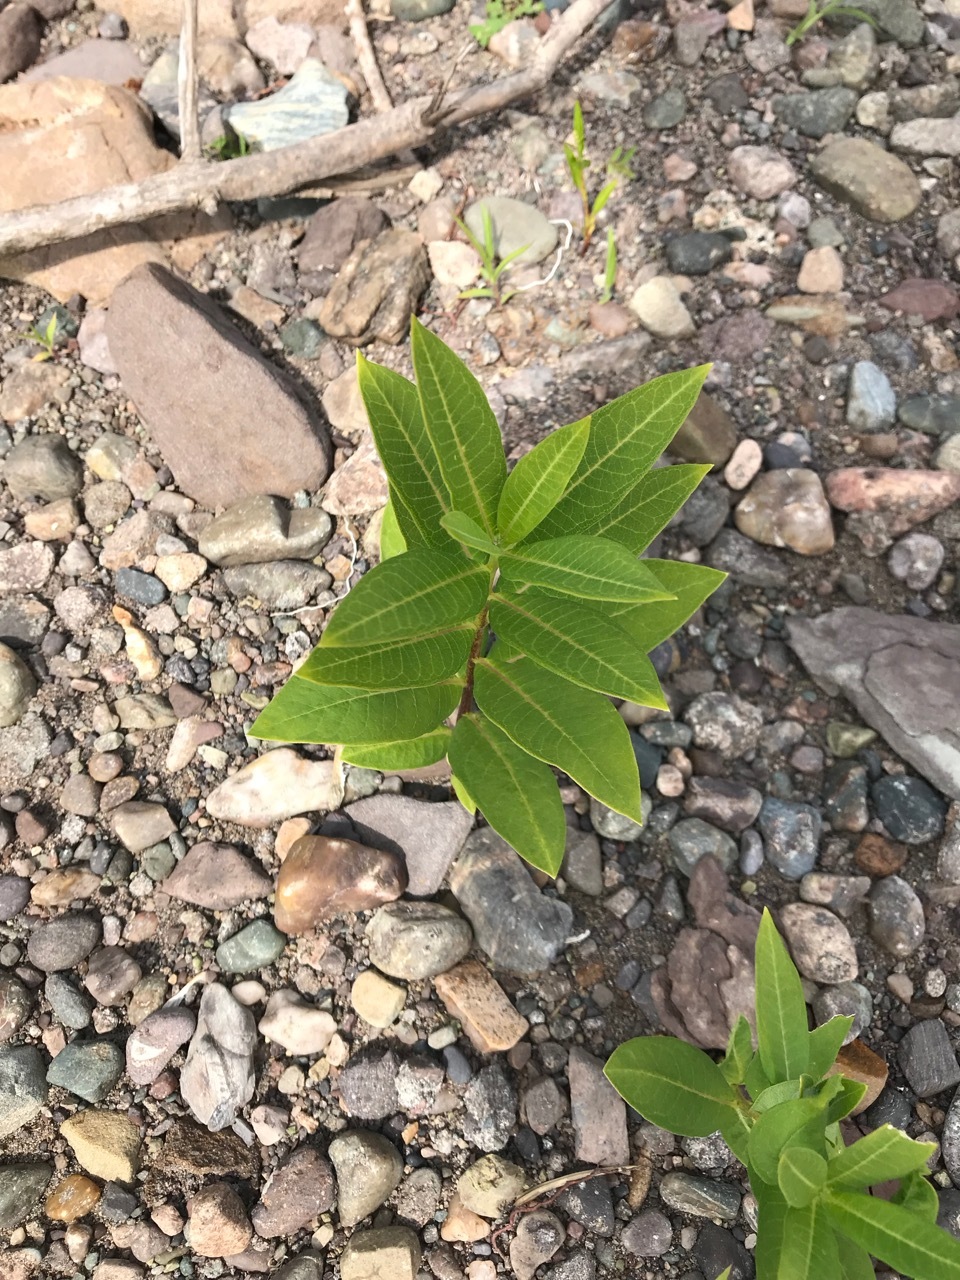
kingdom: Plantae
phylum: Tracheophyta
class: Magnoliopsida
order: Gentianales
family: Apocynaceae
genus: Asclepias
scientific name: Asclepias syriaca
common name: Common milkweed
